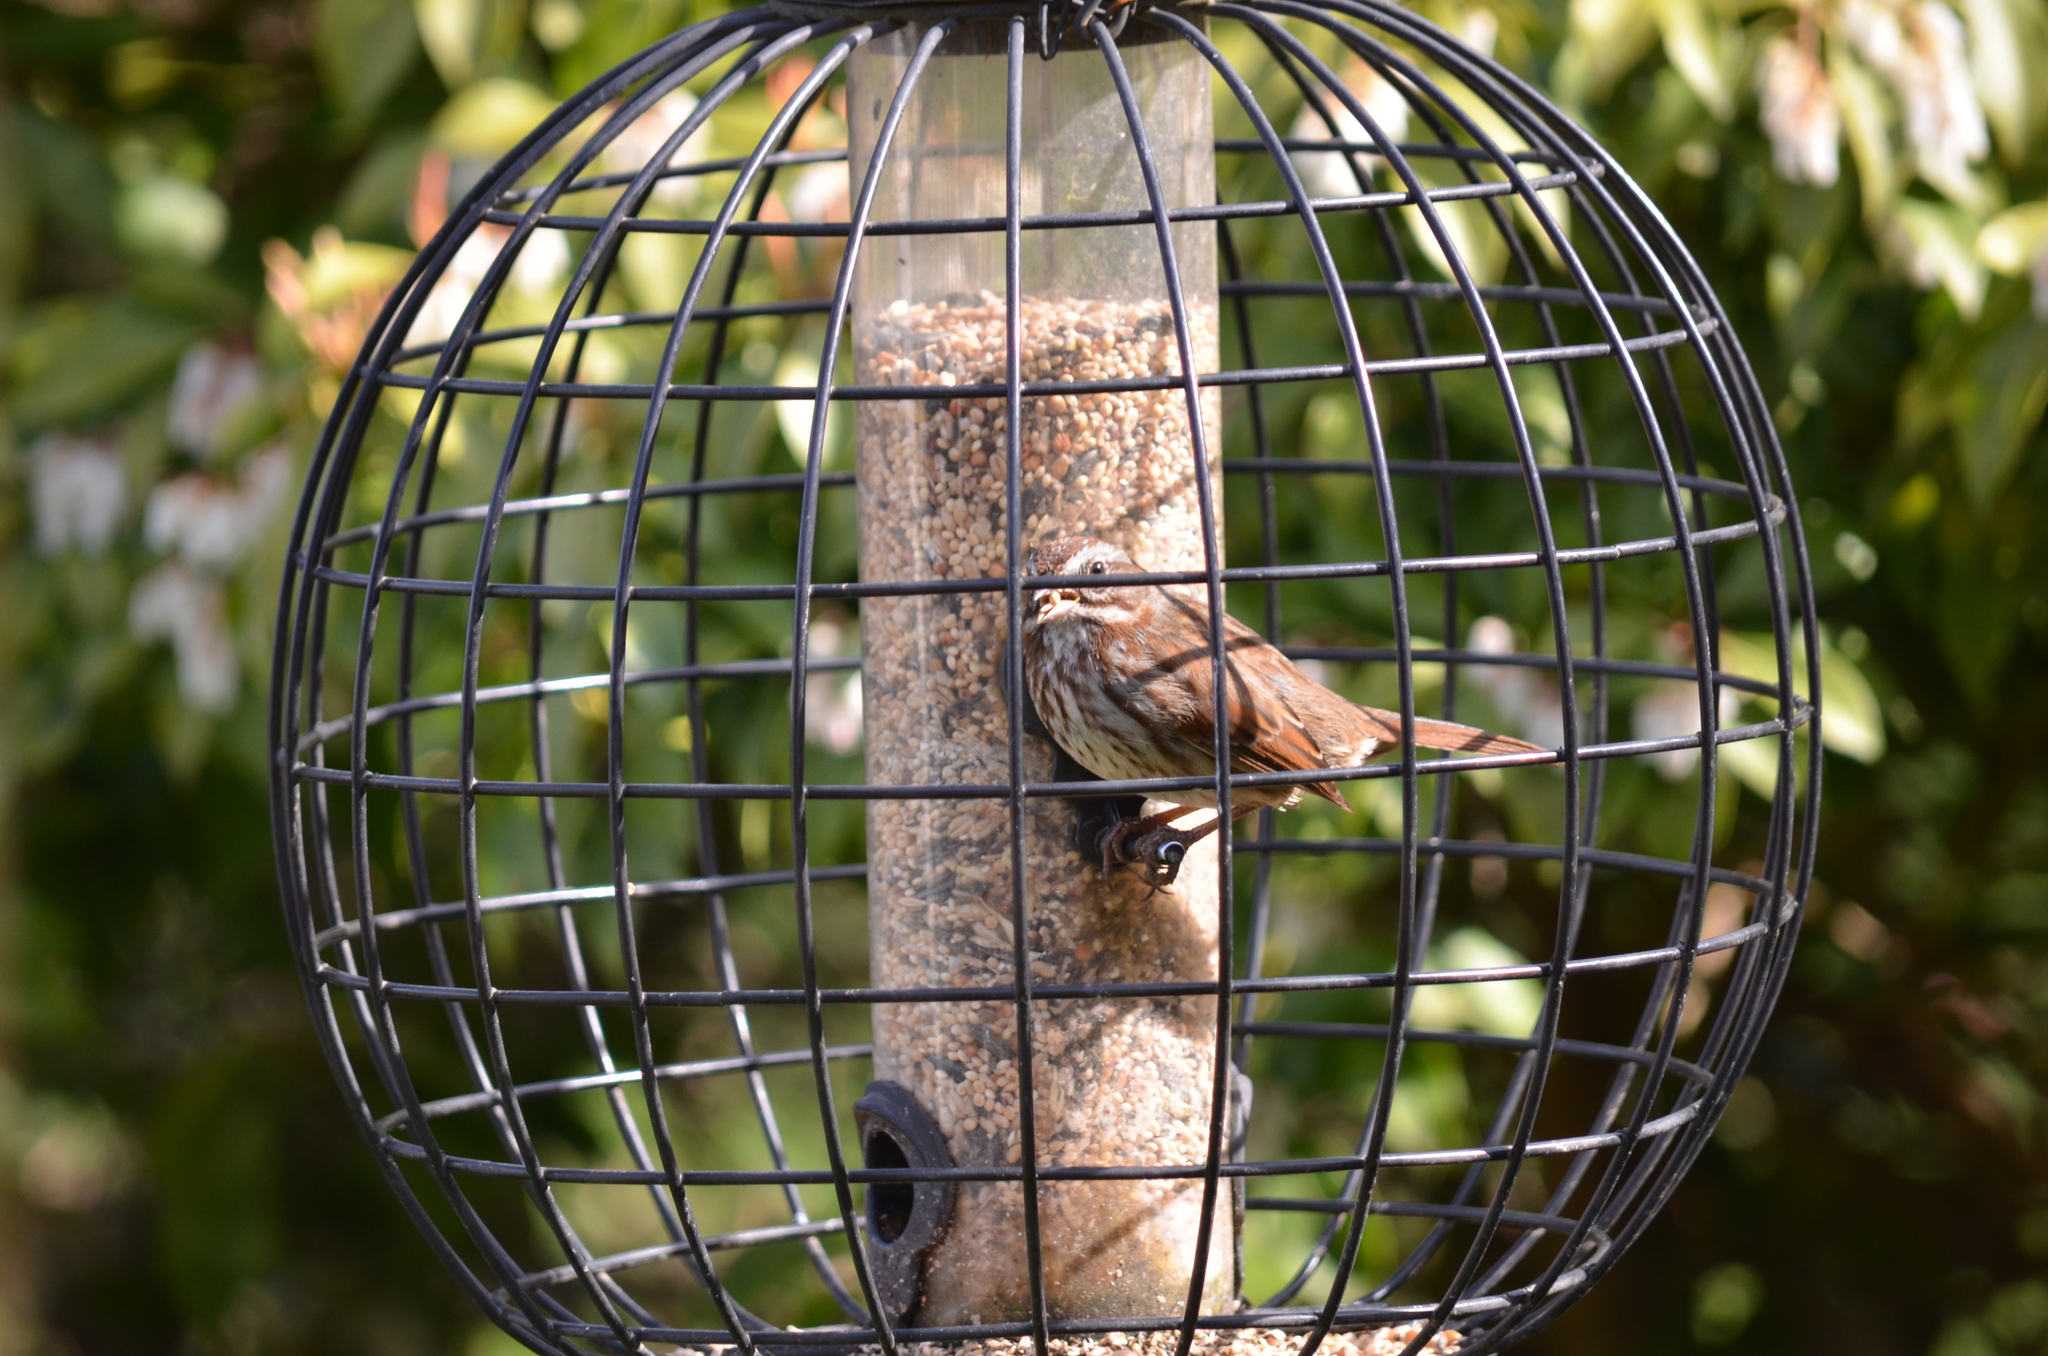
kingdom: Animalia
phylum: Chordata
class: Aves
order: Passeriformes
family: Passerellidae
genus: Melospiza
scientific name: Melospiza melodia
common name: Song sparrow
